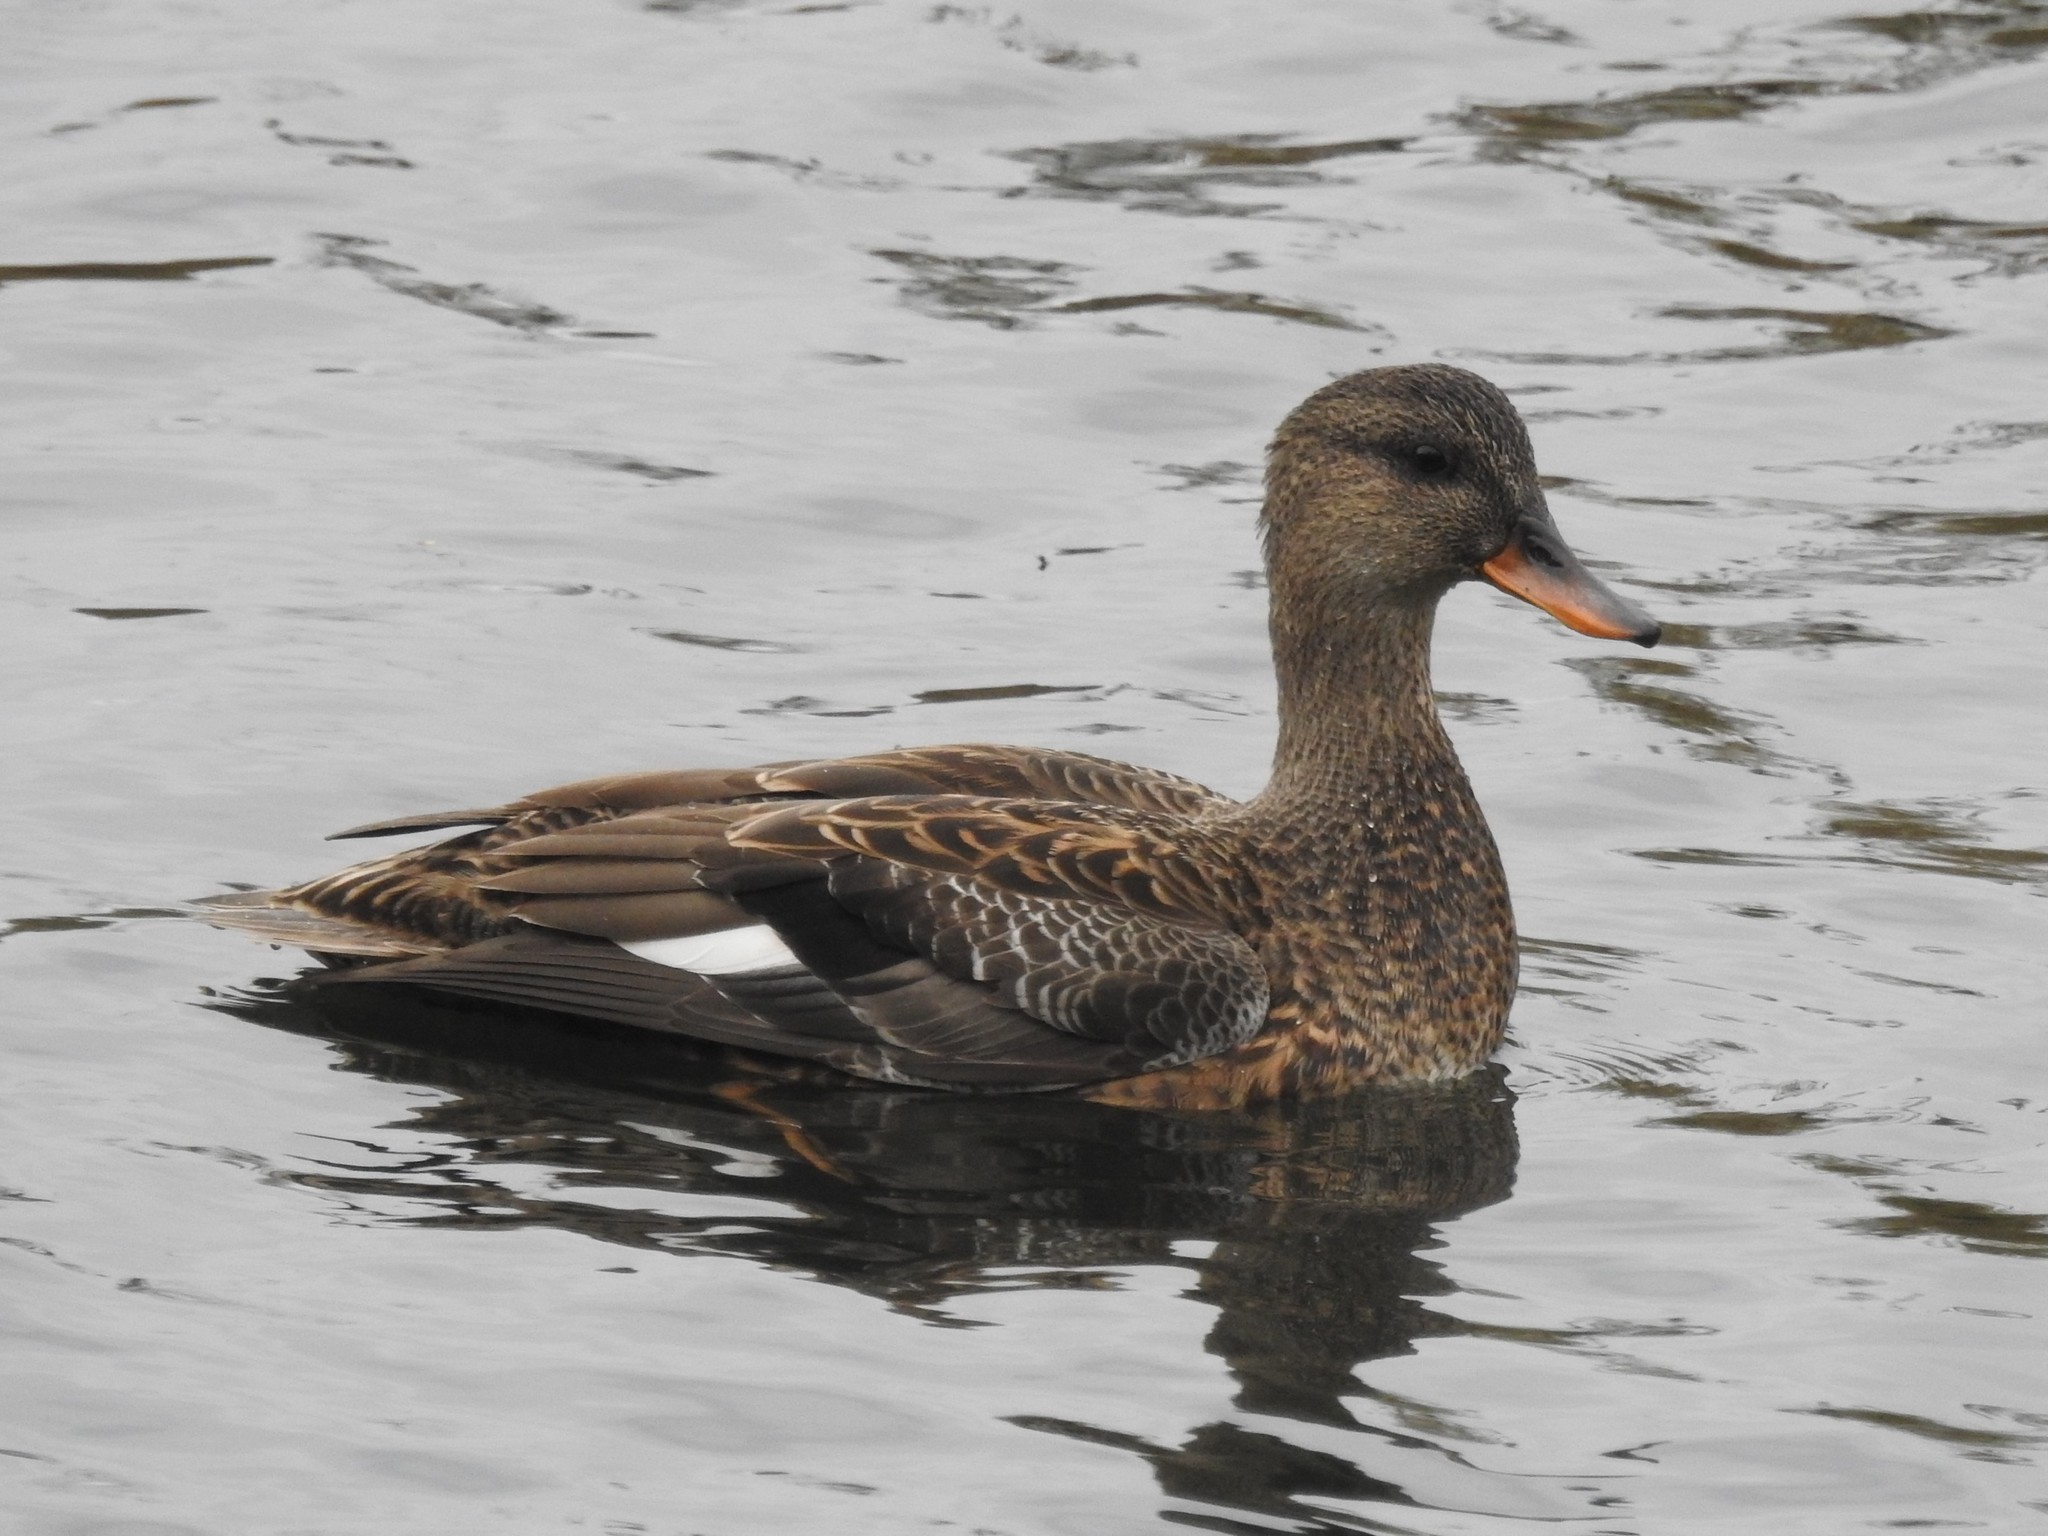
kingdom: Animalia
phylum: Chordata
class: Aves
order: Anseriformes
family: Anatidae
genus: Mareca
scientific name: Mareca strepera
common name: Gadwall
